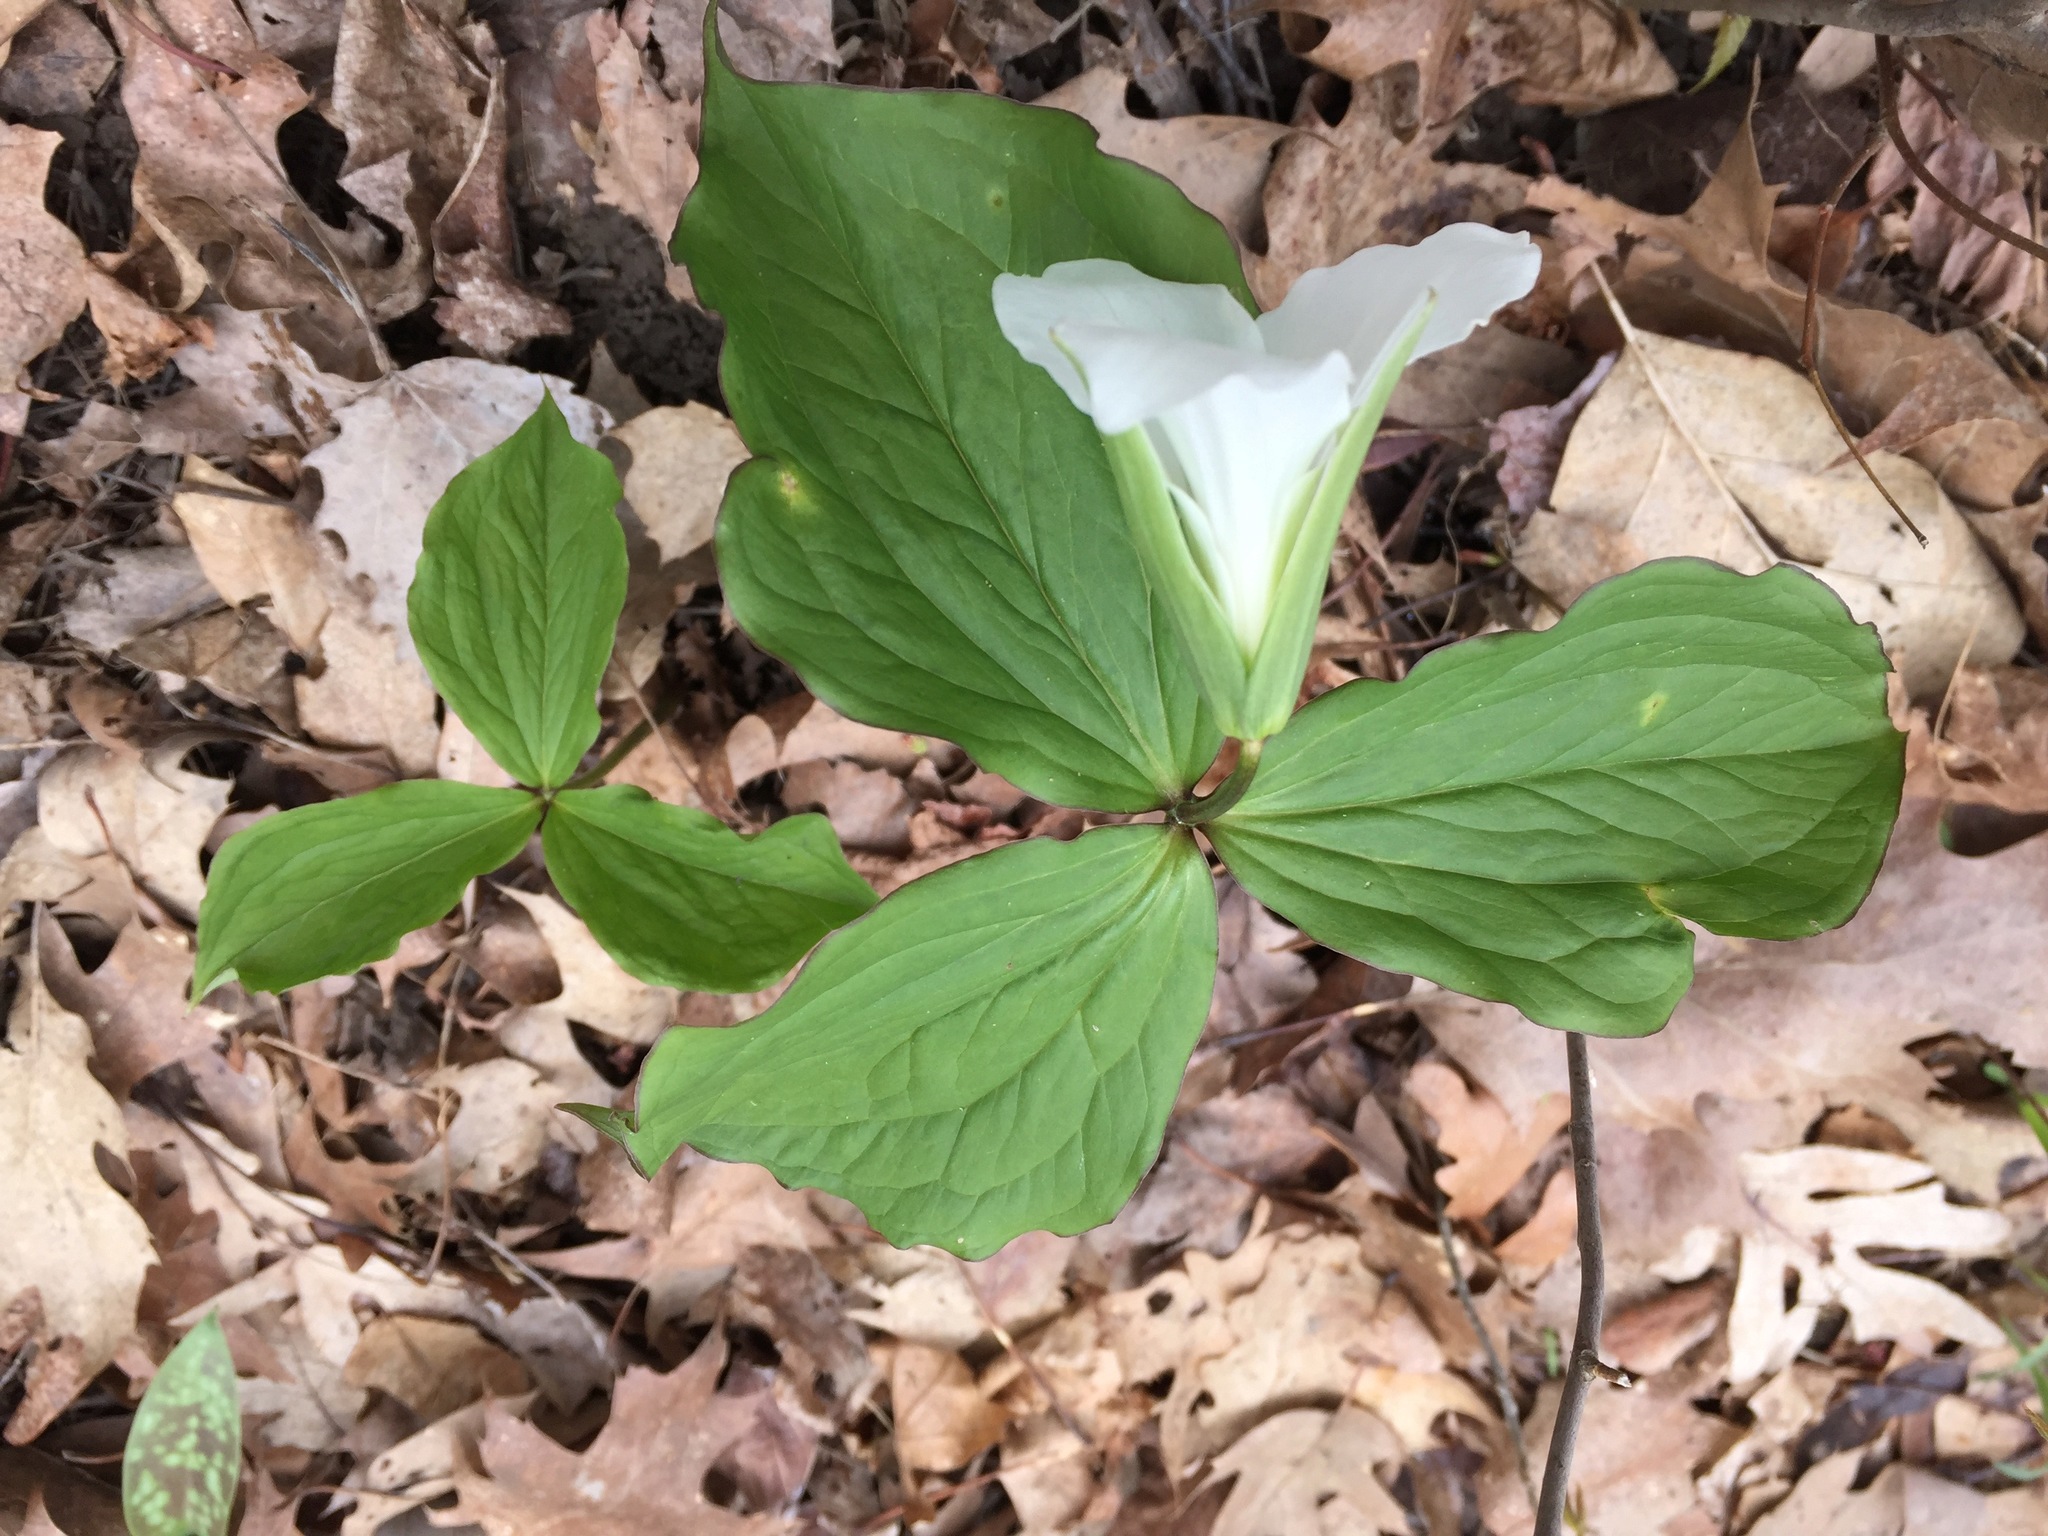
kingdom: Plantae
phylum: Tracheophyta
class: Liliopsida
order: Liliales
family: Melanthiaceae
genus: Trillium
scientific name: Trillium grandiflorum
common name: Great white trillium
